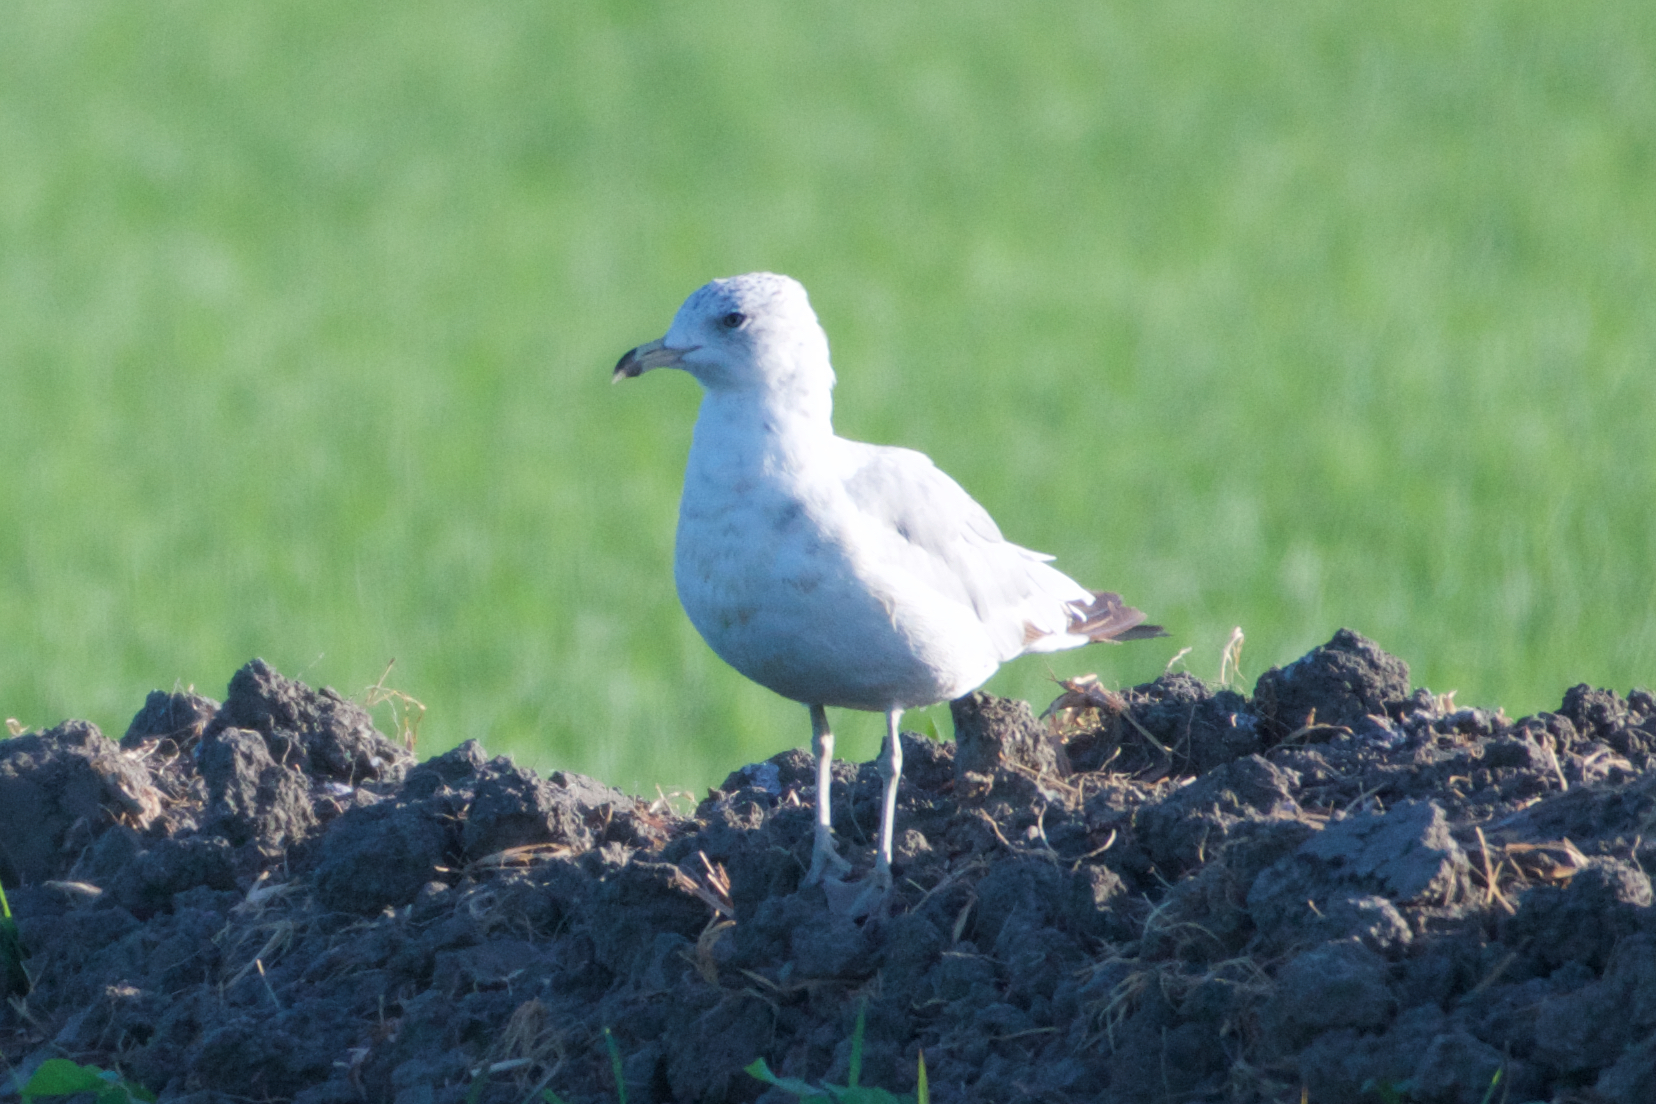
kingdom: Animalia
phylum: Chordata
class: Aves
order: Charadriiformes
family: Laridae
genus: Larus
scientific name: Larus delawarensis
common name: Ring-billed gull
